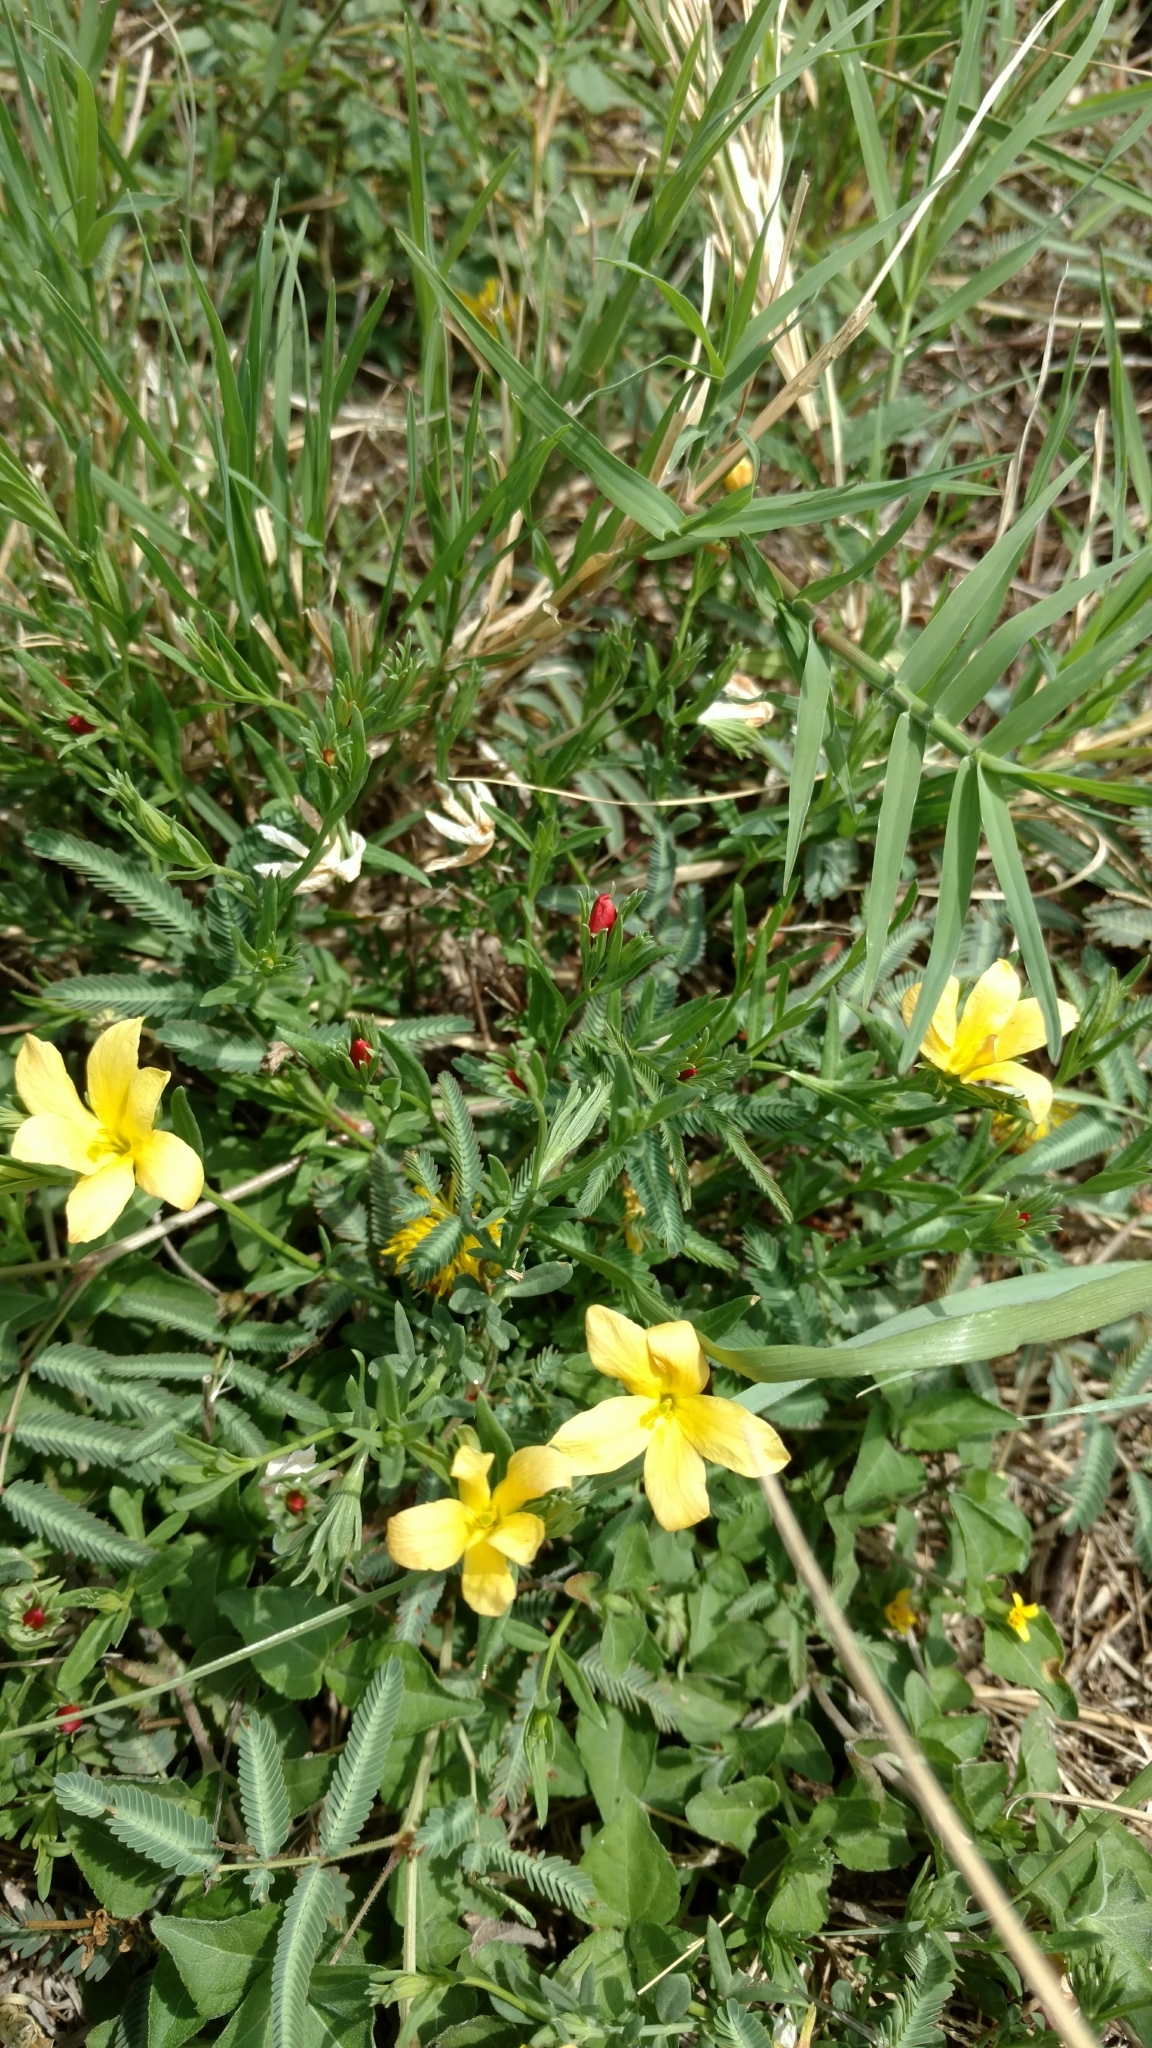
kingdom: Plantae
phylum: Tracheophyta
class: Magnoliopsida
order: Lamiales
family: Oleaceae
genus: Menodora
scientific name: Menodora heterophylla
